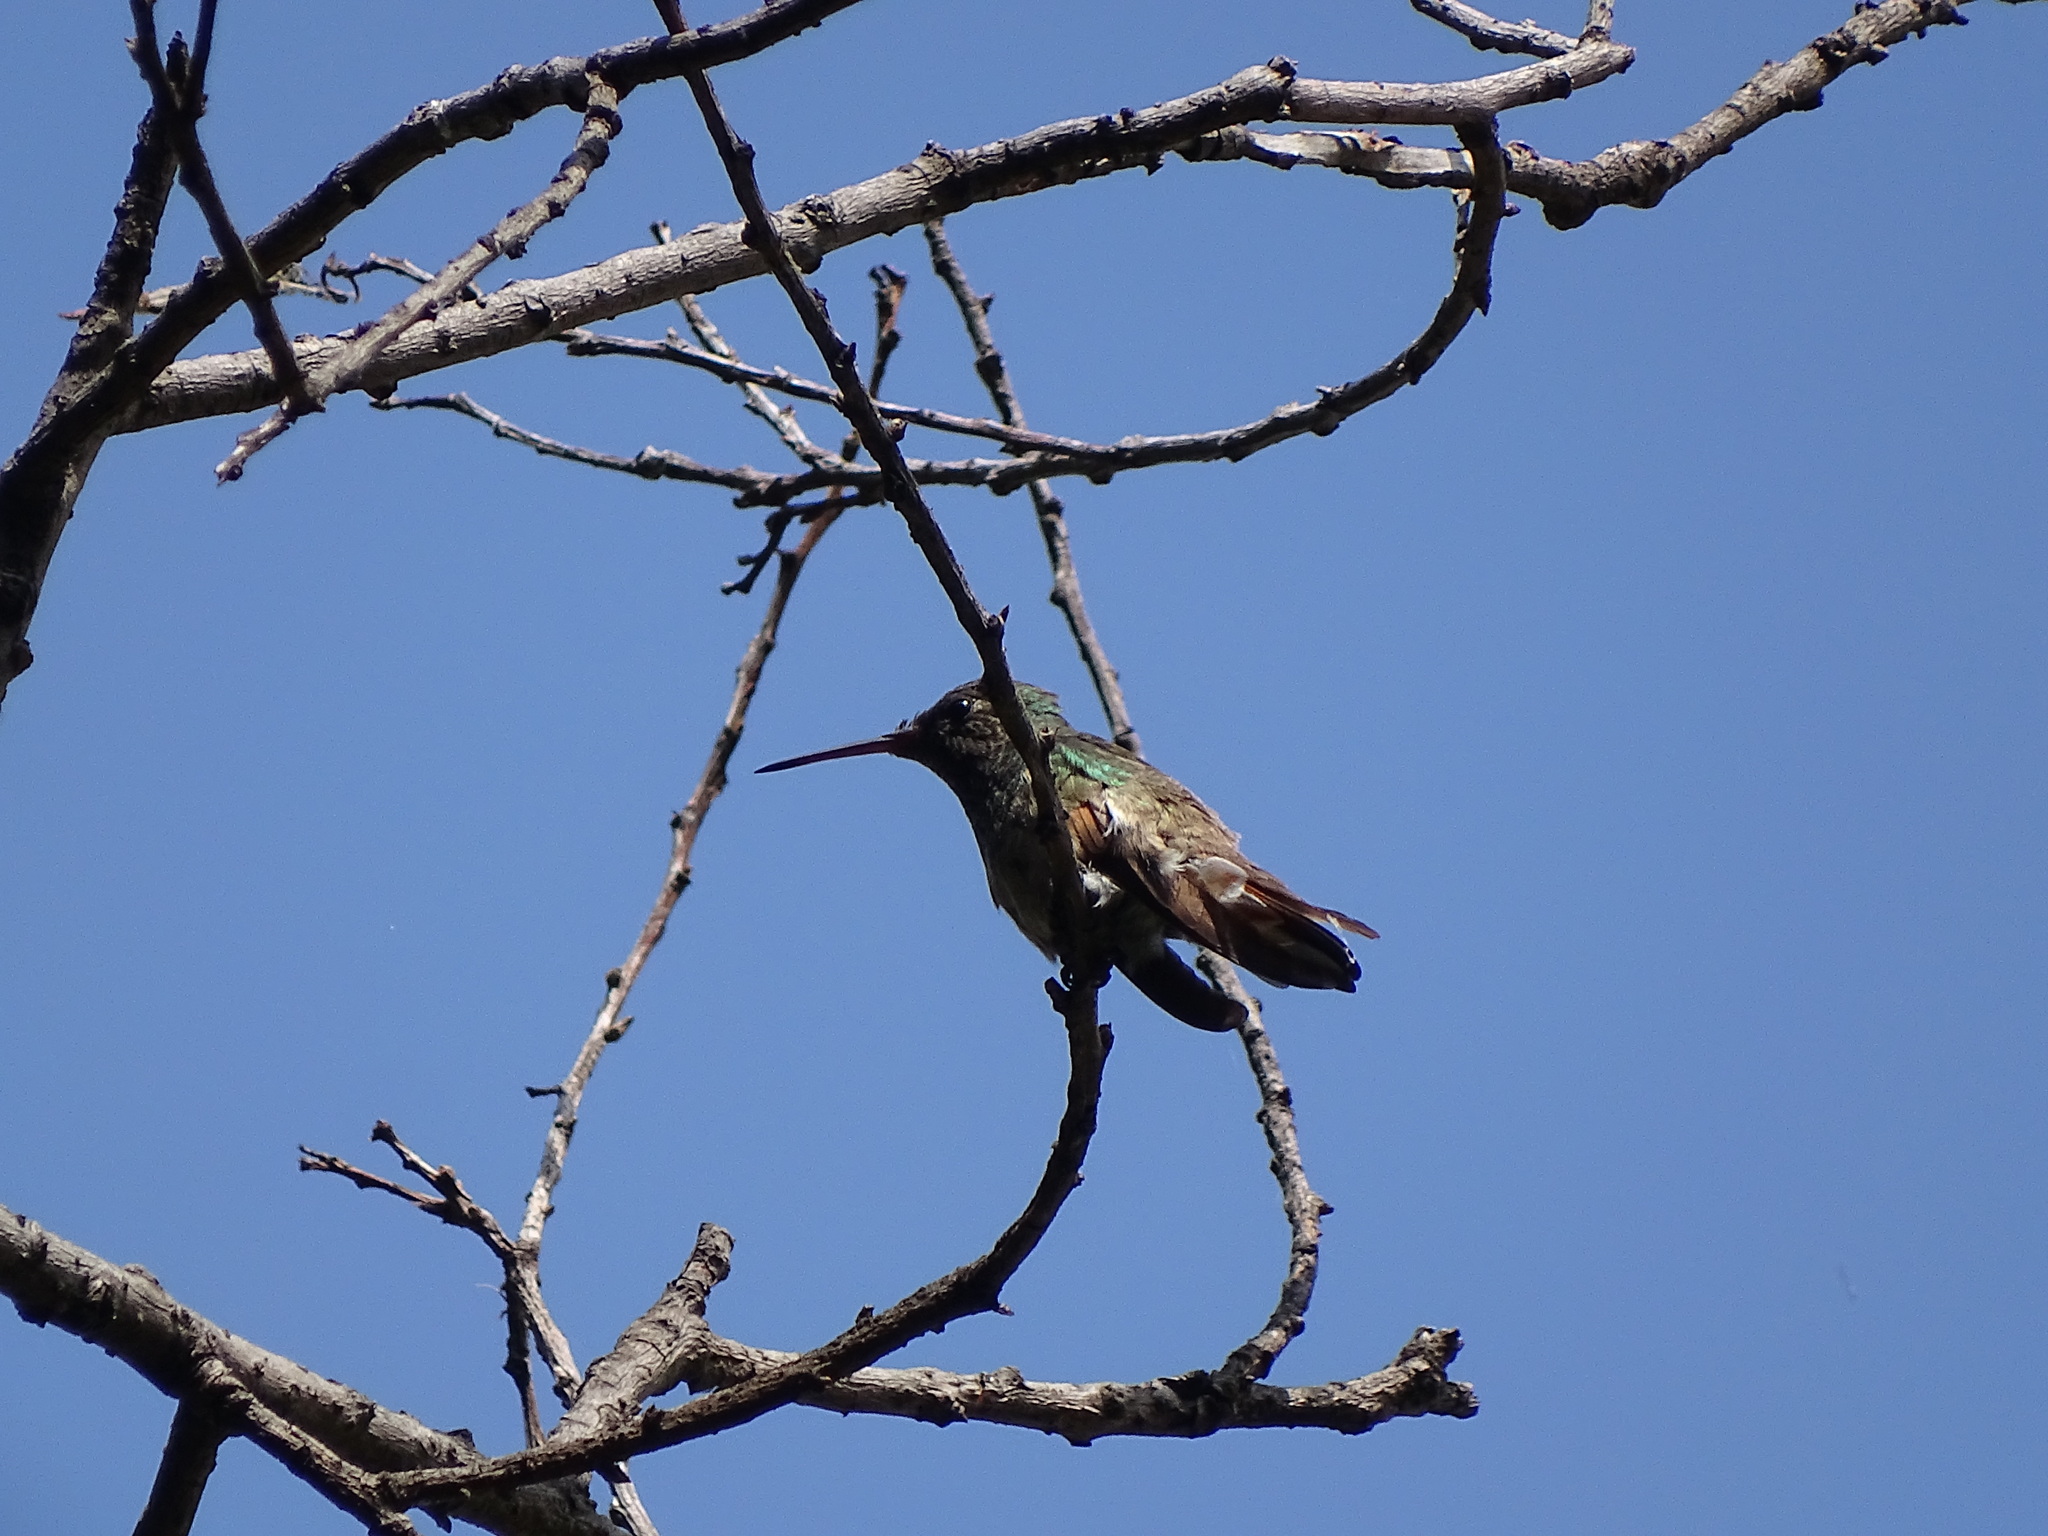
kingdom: Animalia
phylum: Chordata
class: Aves
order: Apodiformes
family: Trochilidae
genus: Saucerottia
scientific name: Saucerottia beryllina
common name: Berylline hummingbird
